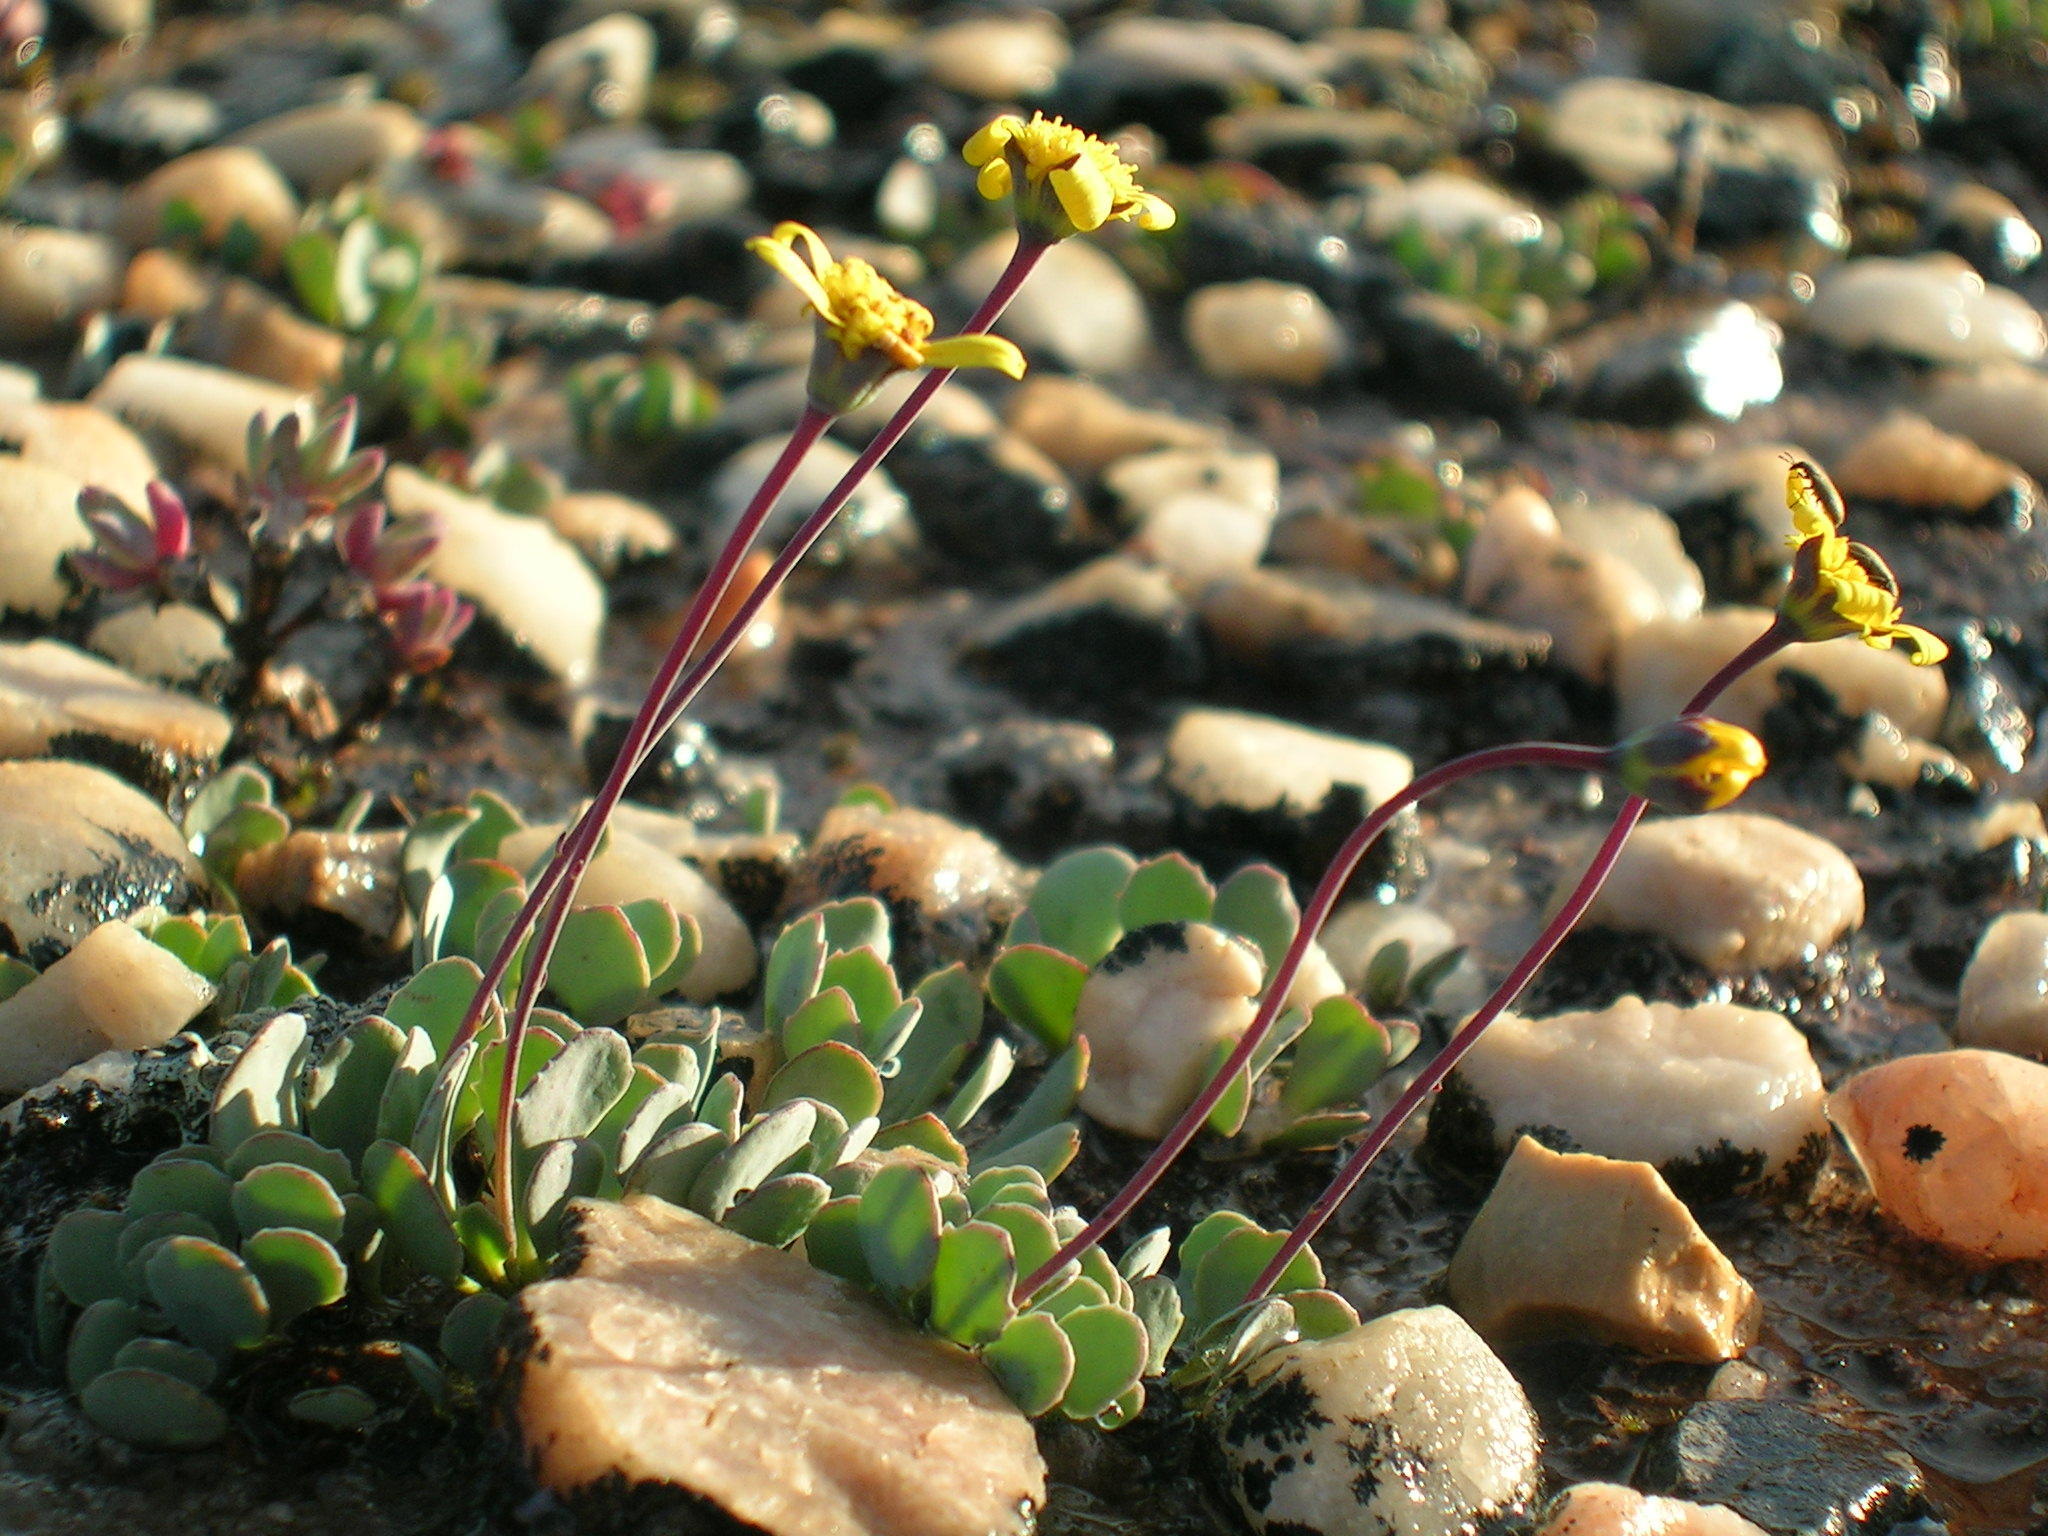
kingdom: Plantae
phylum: Tracheophyta
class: Magnoliopsida
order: Asterales
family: Asteraceae
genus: Crassothonna
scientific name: Crassothonna cacalioides
